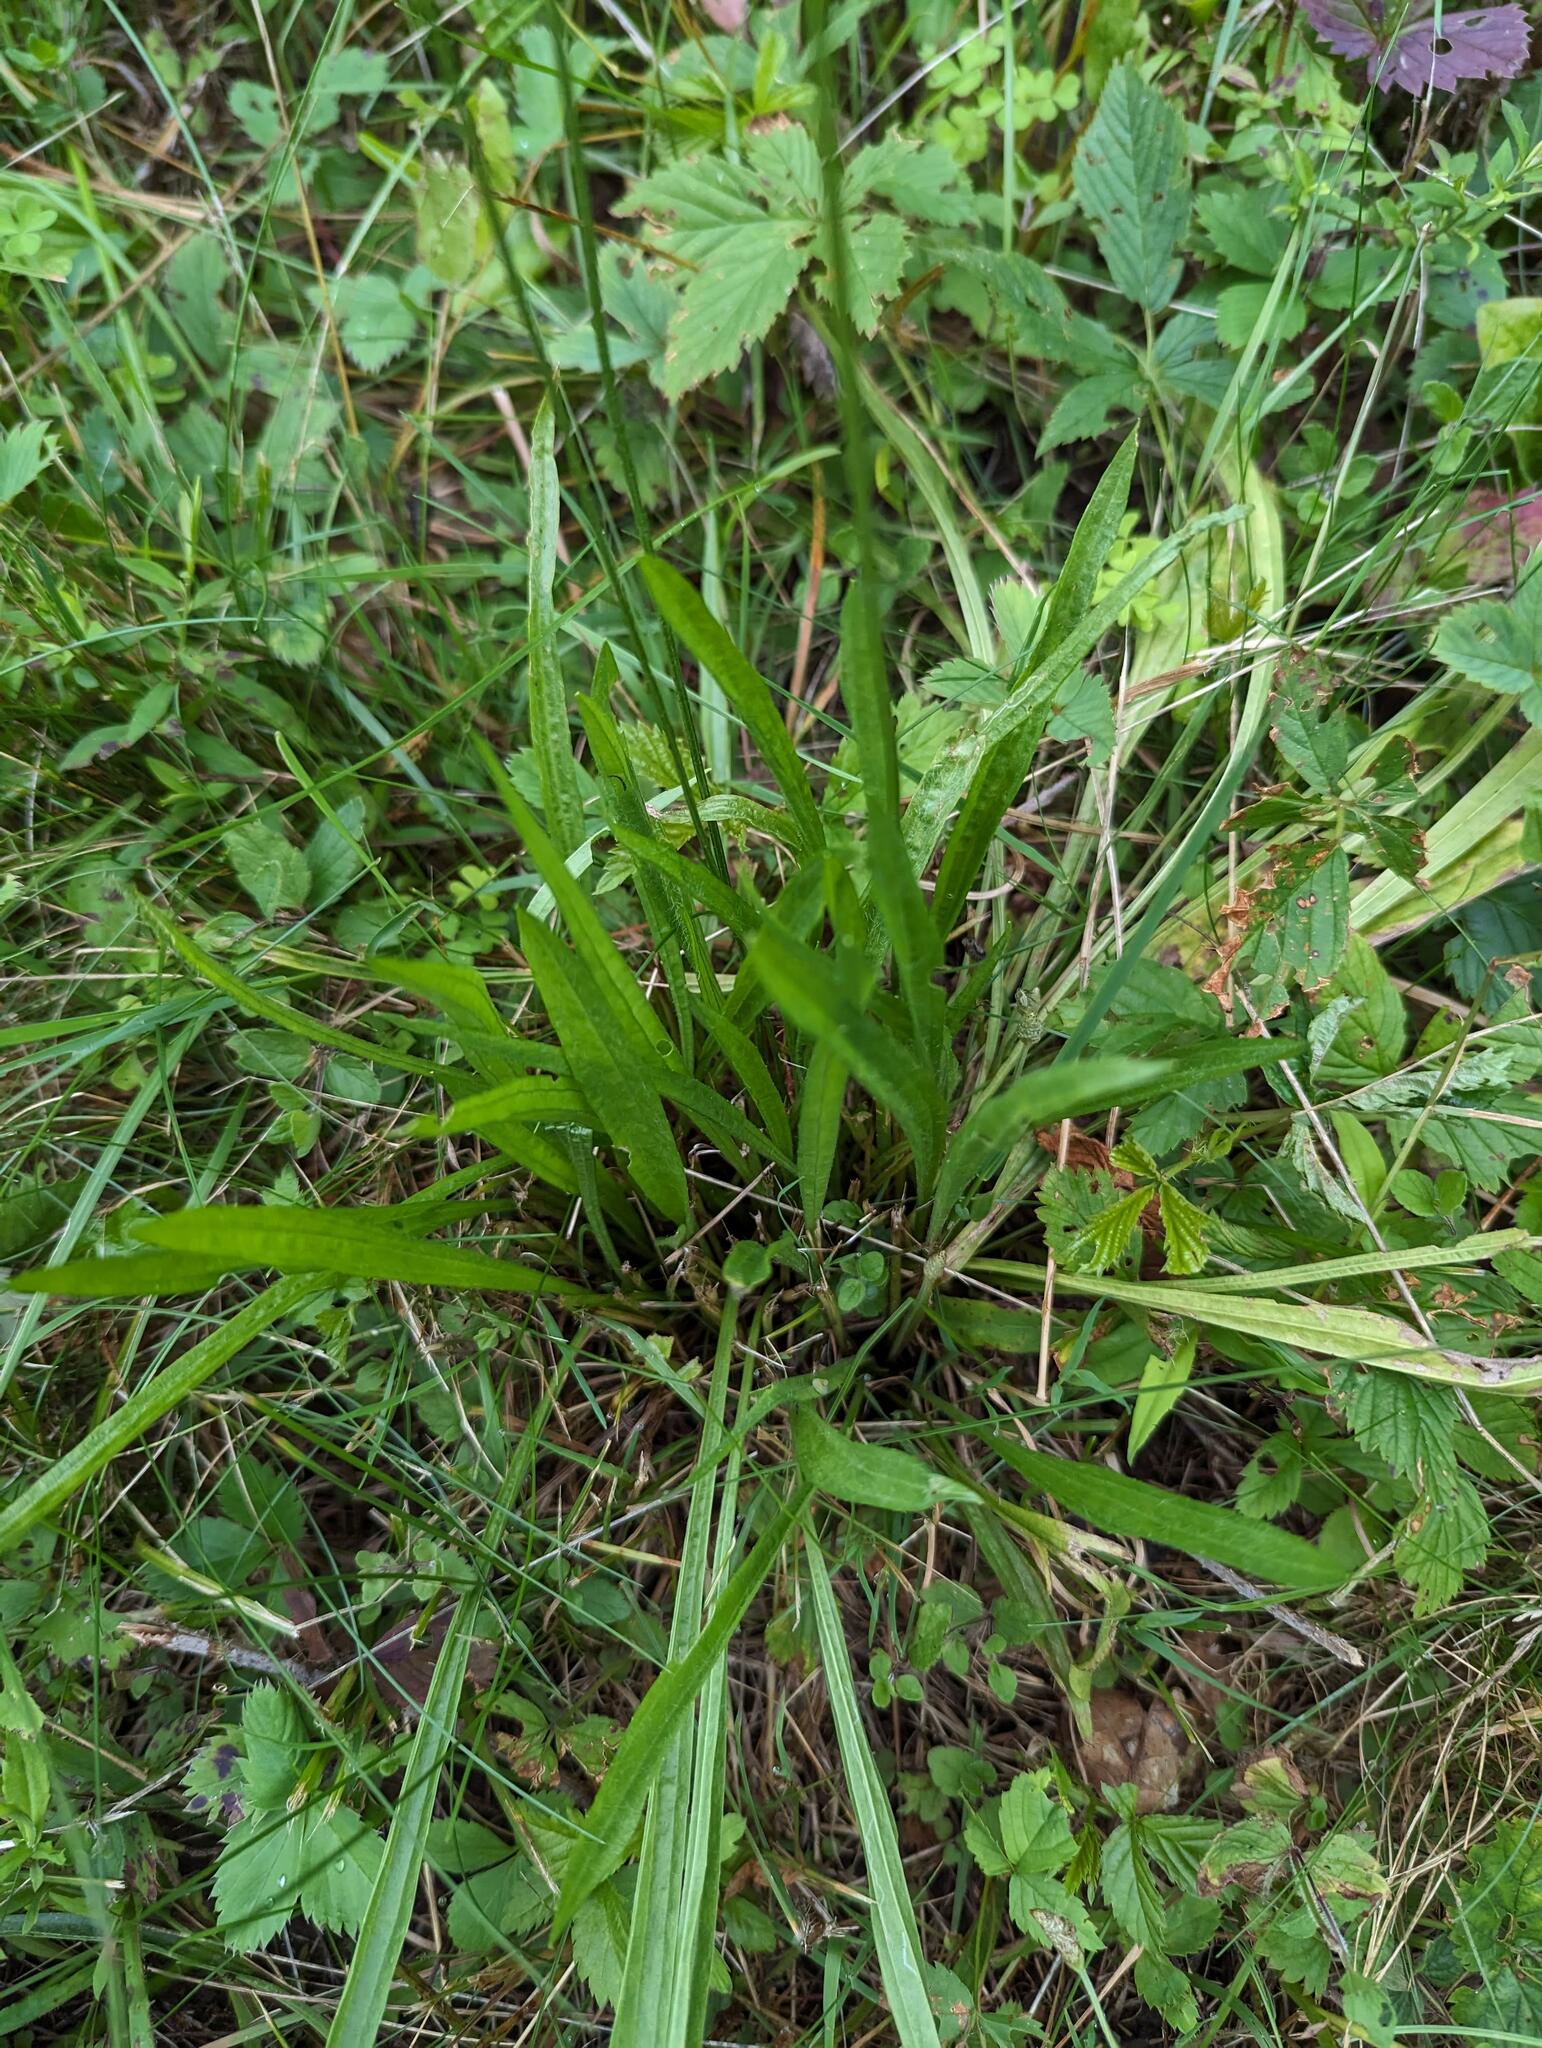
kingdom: Plantae
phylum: Tracheophyta
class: Magnoliopsida
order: Lamiales
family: Plantaginaceae
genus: Plantago
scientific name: Plantago lanceolata
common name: Ribwort plantain
